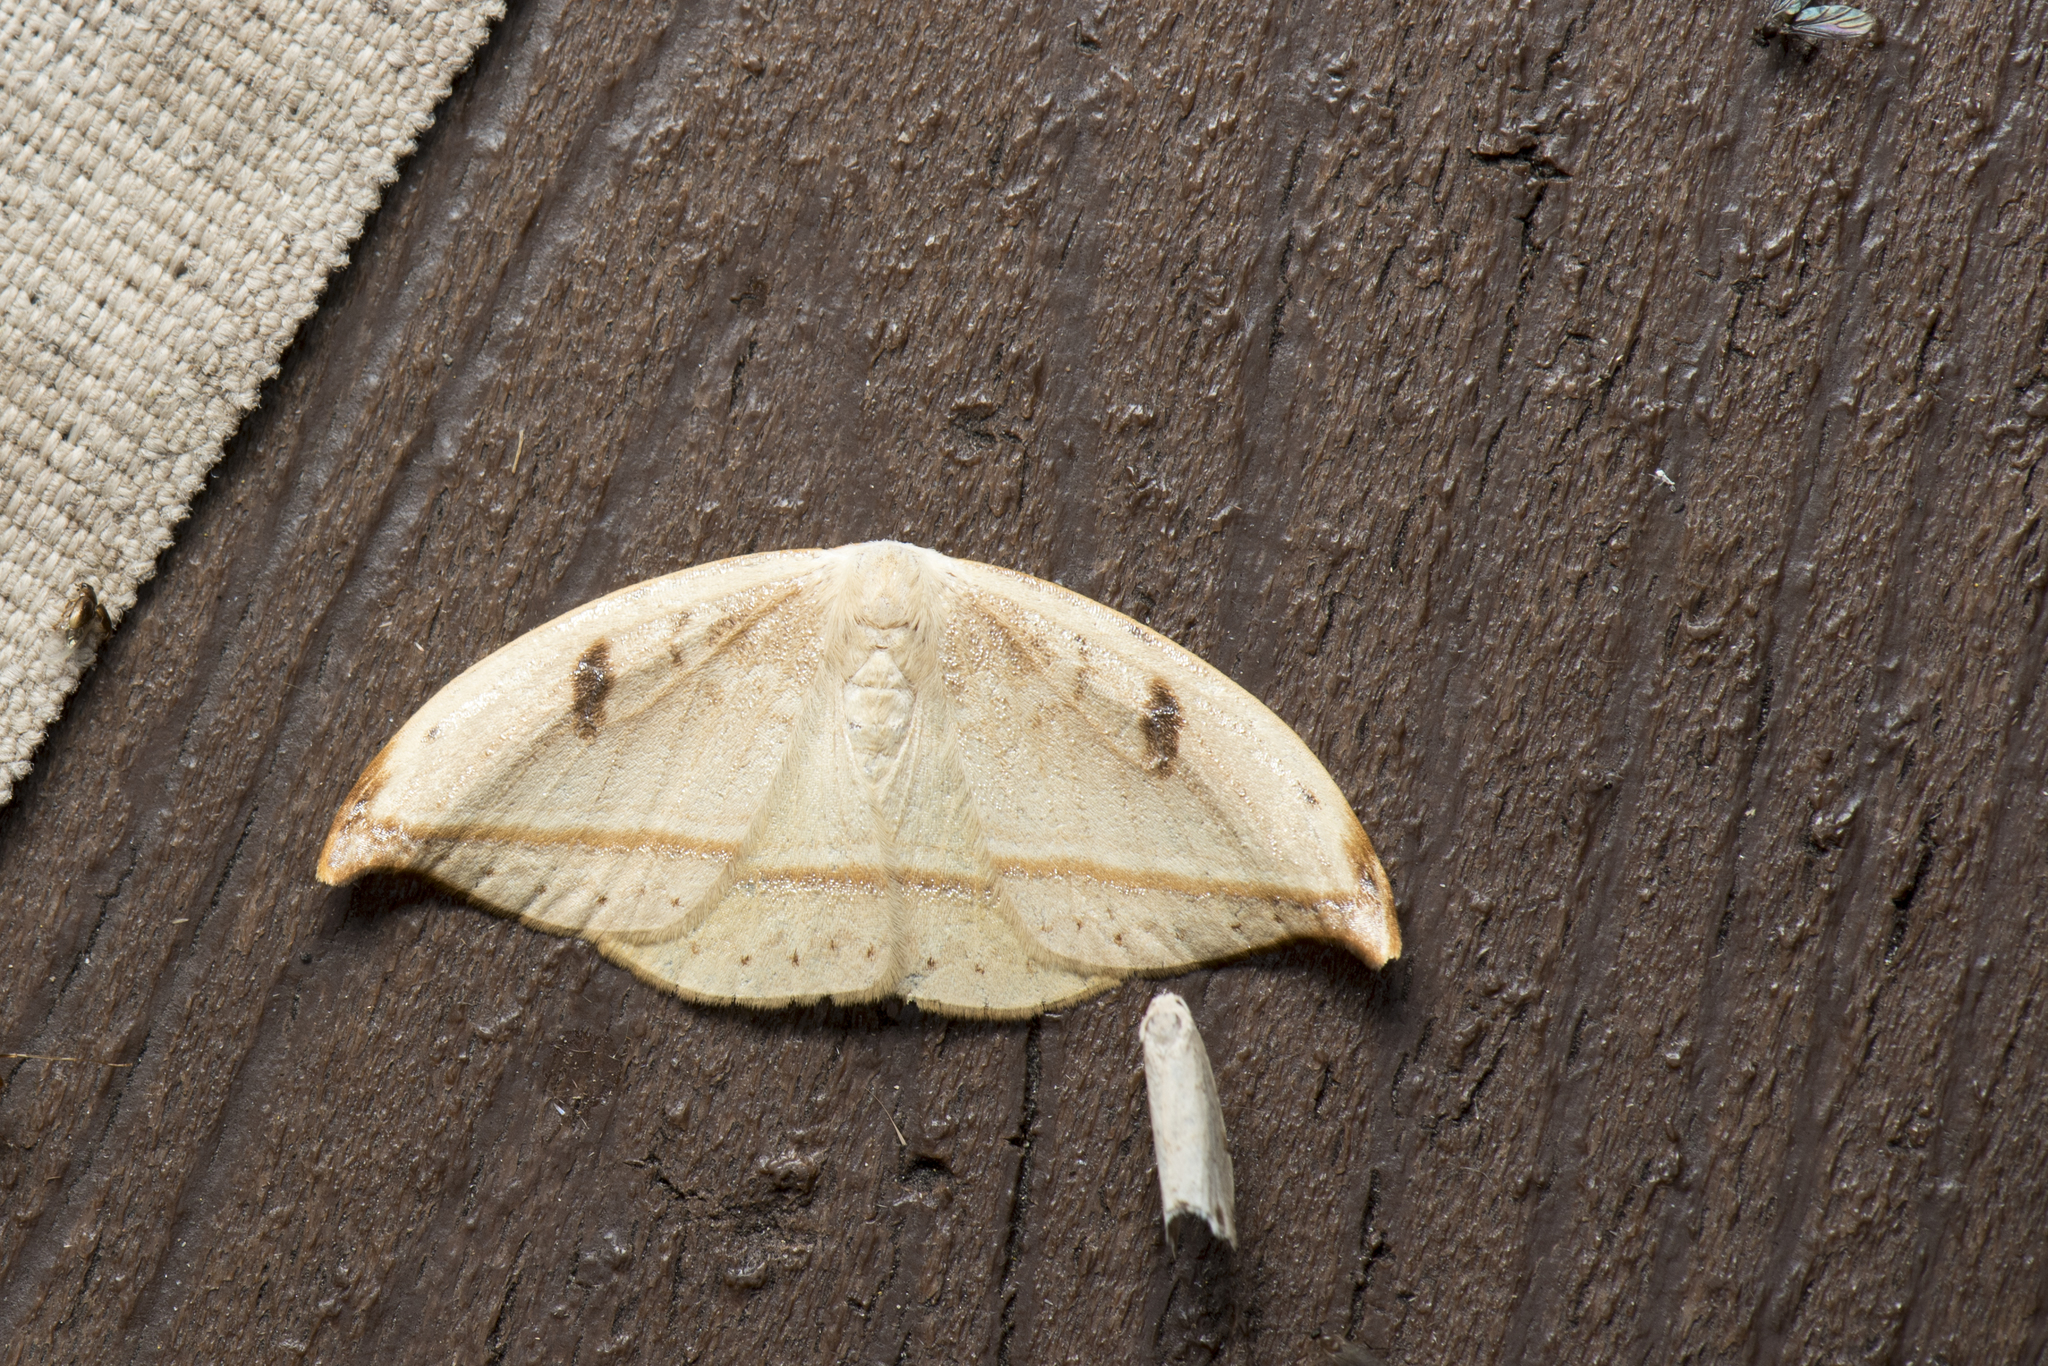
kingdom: Animalia
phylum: Arthropoda
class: Insecta
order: Lepidoptera
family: Drepanidae
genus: Callidrepana
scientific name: Callidrepana patrana
